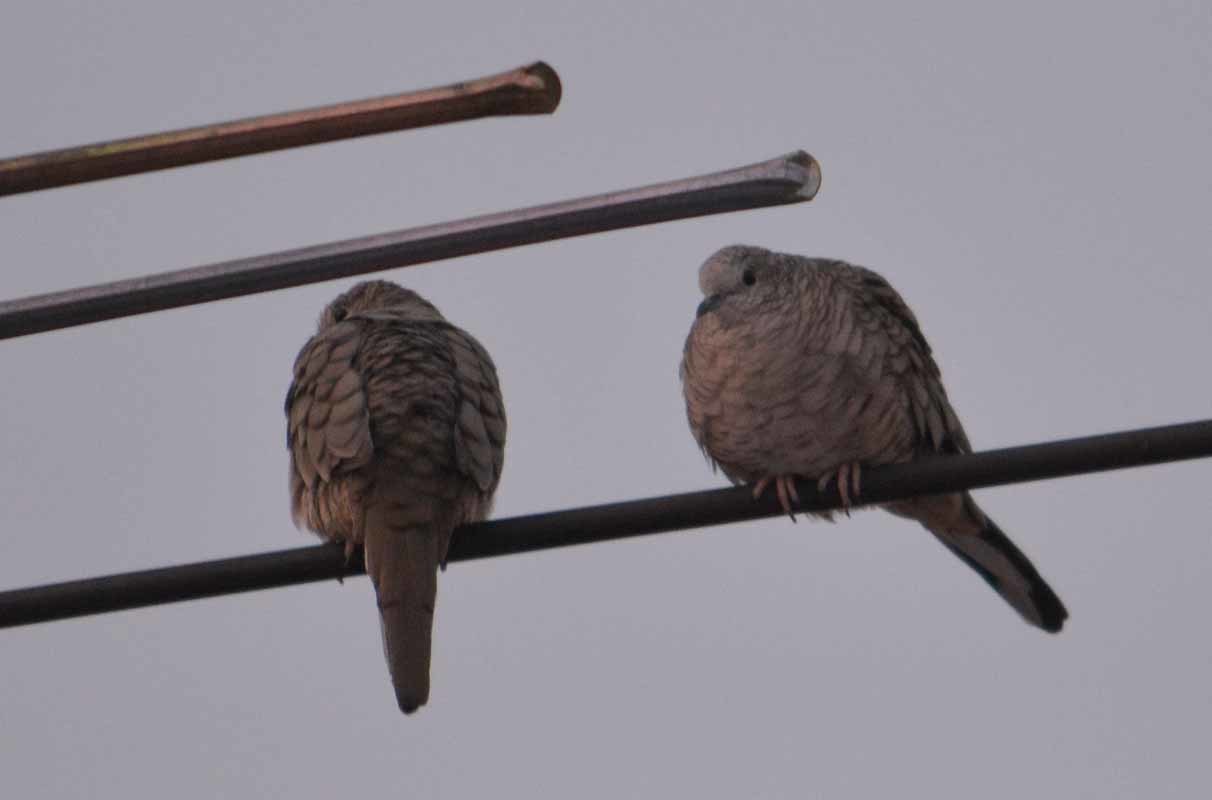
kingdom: Animalia
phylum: Chordata
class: Aves
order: Columbiformes
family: Columbidae
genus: Columbina
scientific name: Columbina inca
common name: Inca dove
